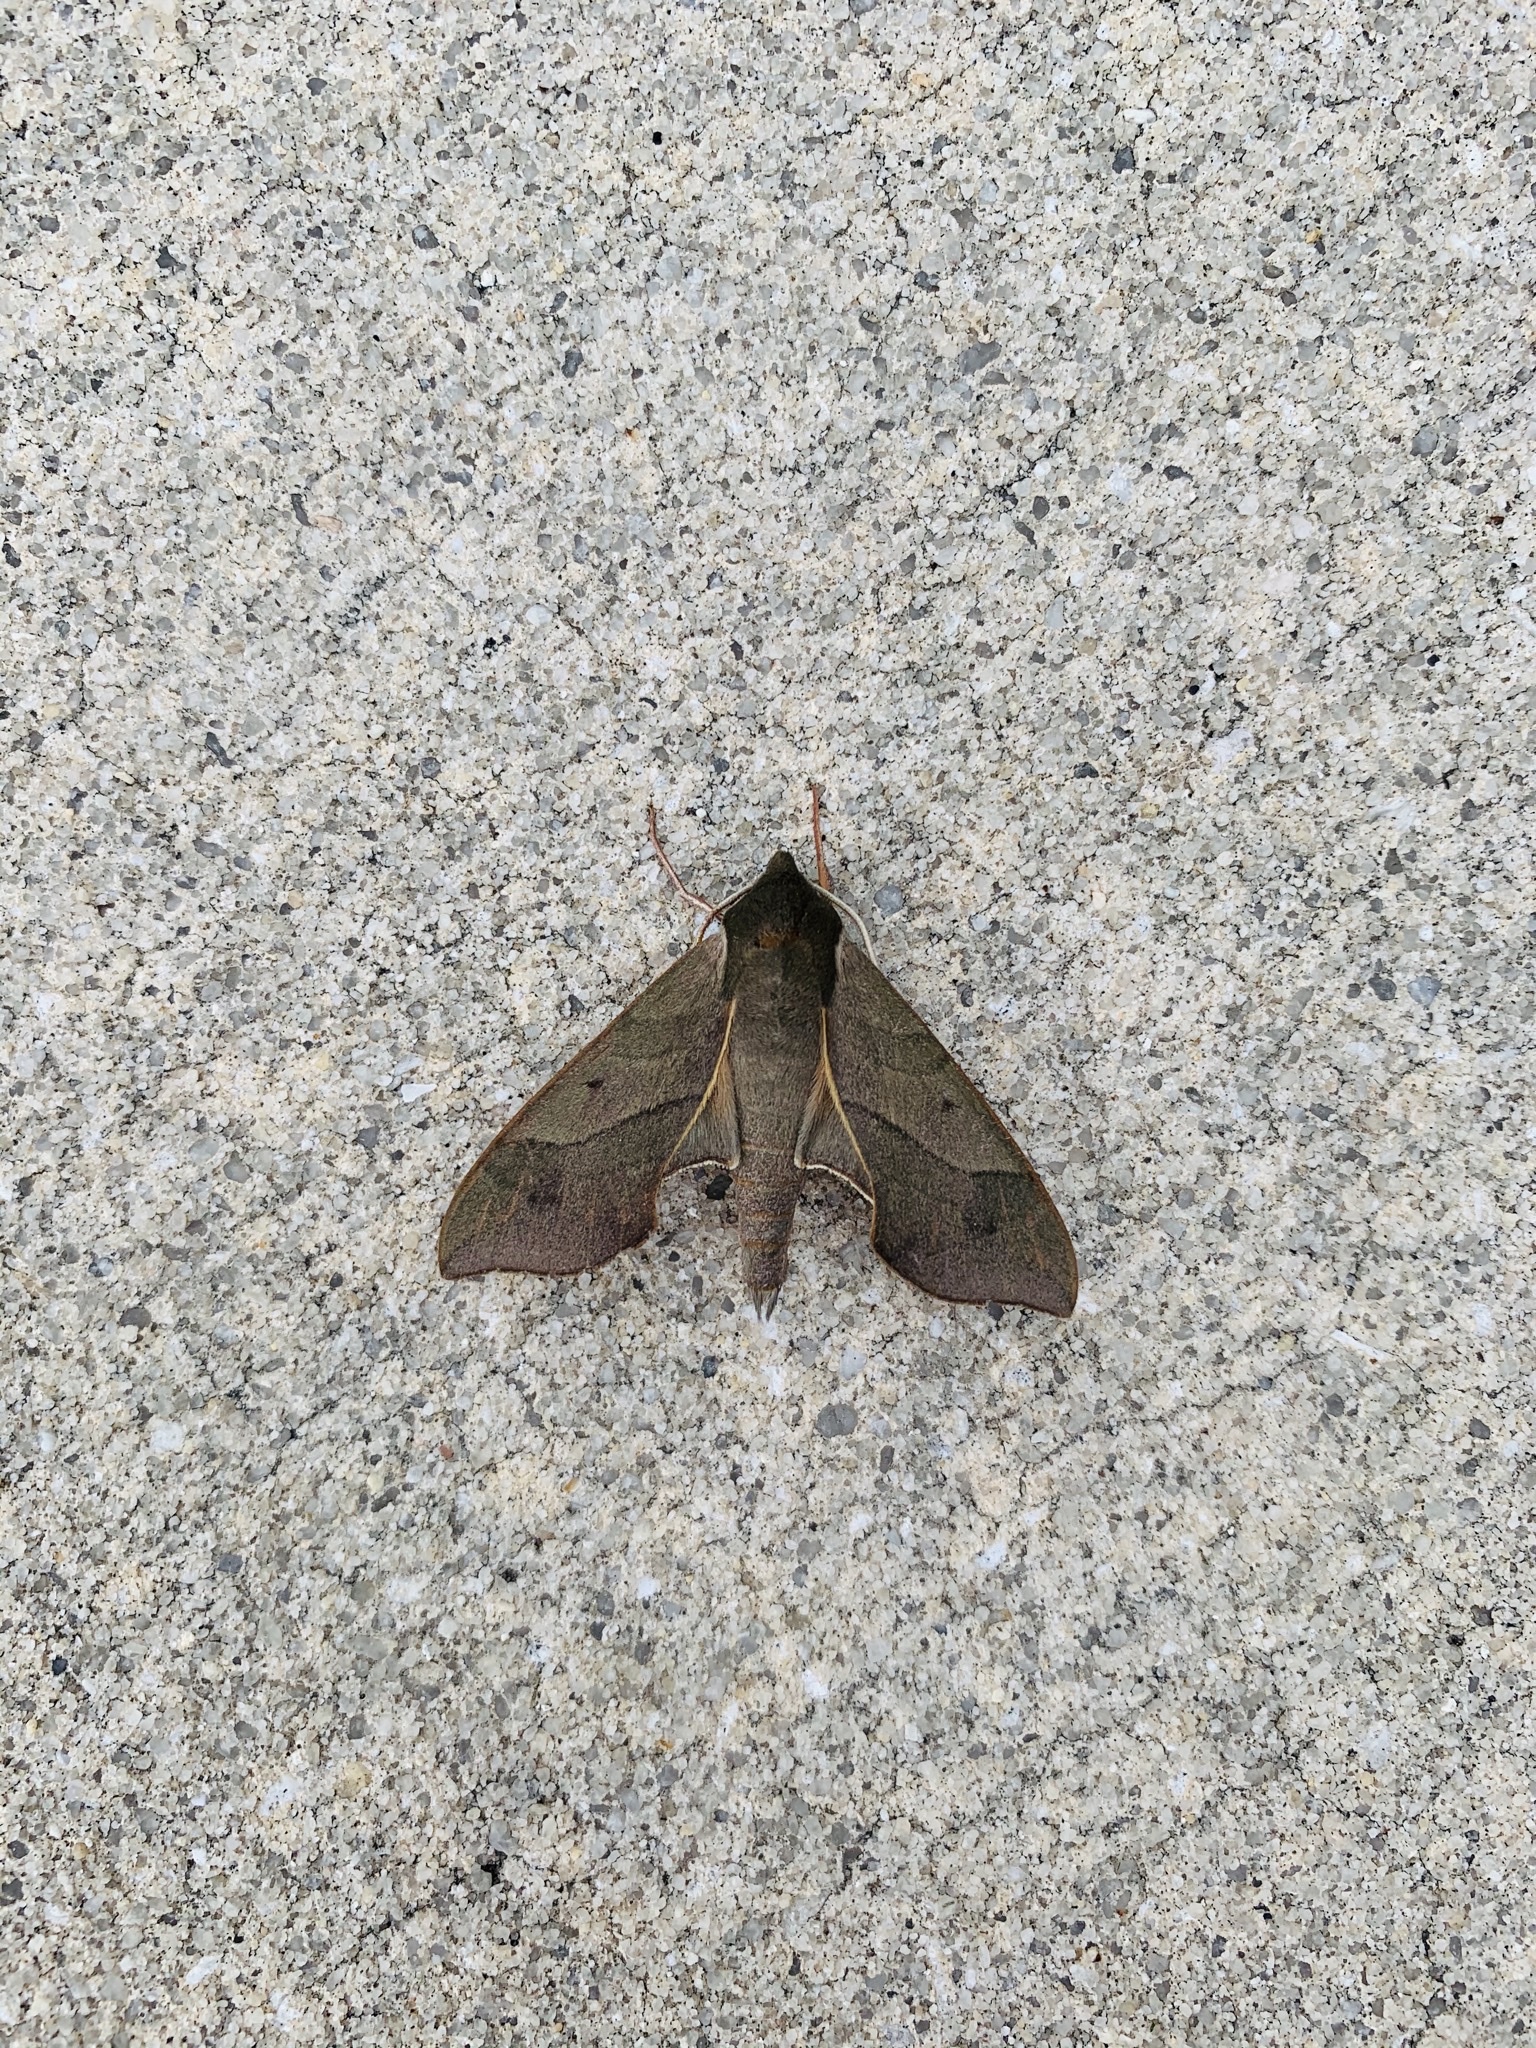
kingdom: Animalia
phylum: Arthropoda
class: Insecta
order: Lepidoptera
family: Sphingidae
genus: Darapsa
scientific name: Darapsa myron
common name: Hog sphinx
